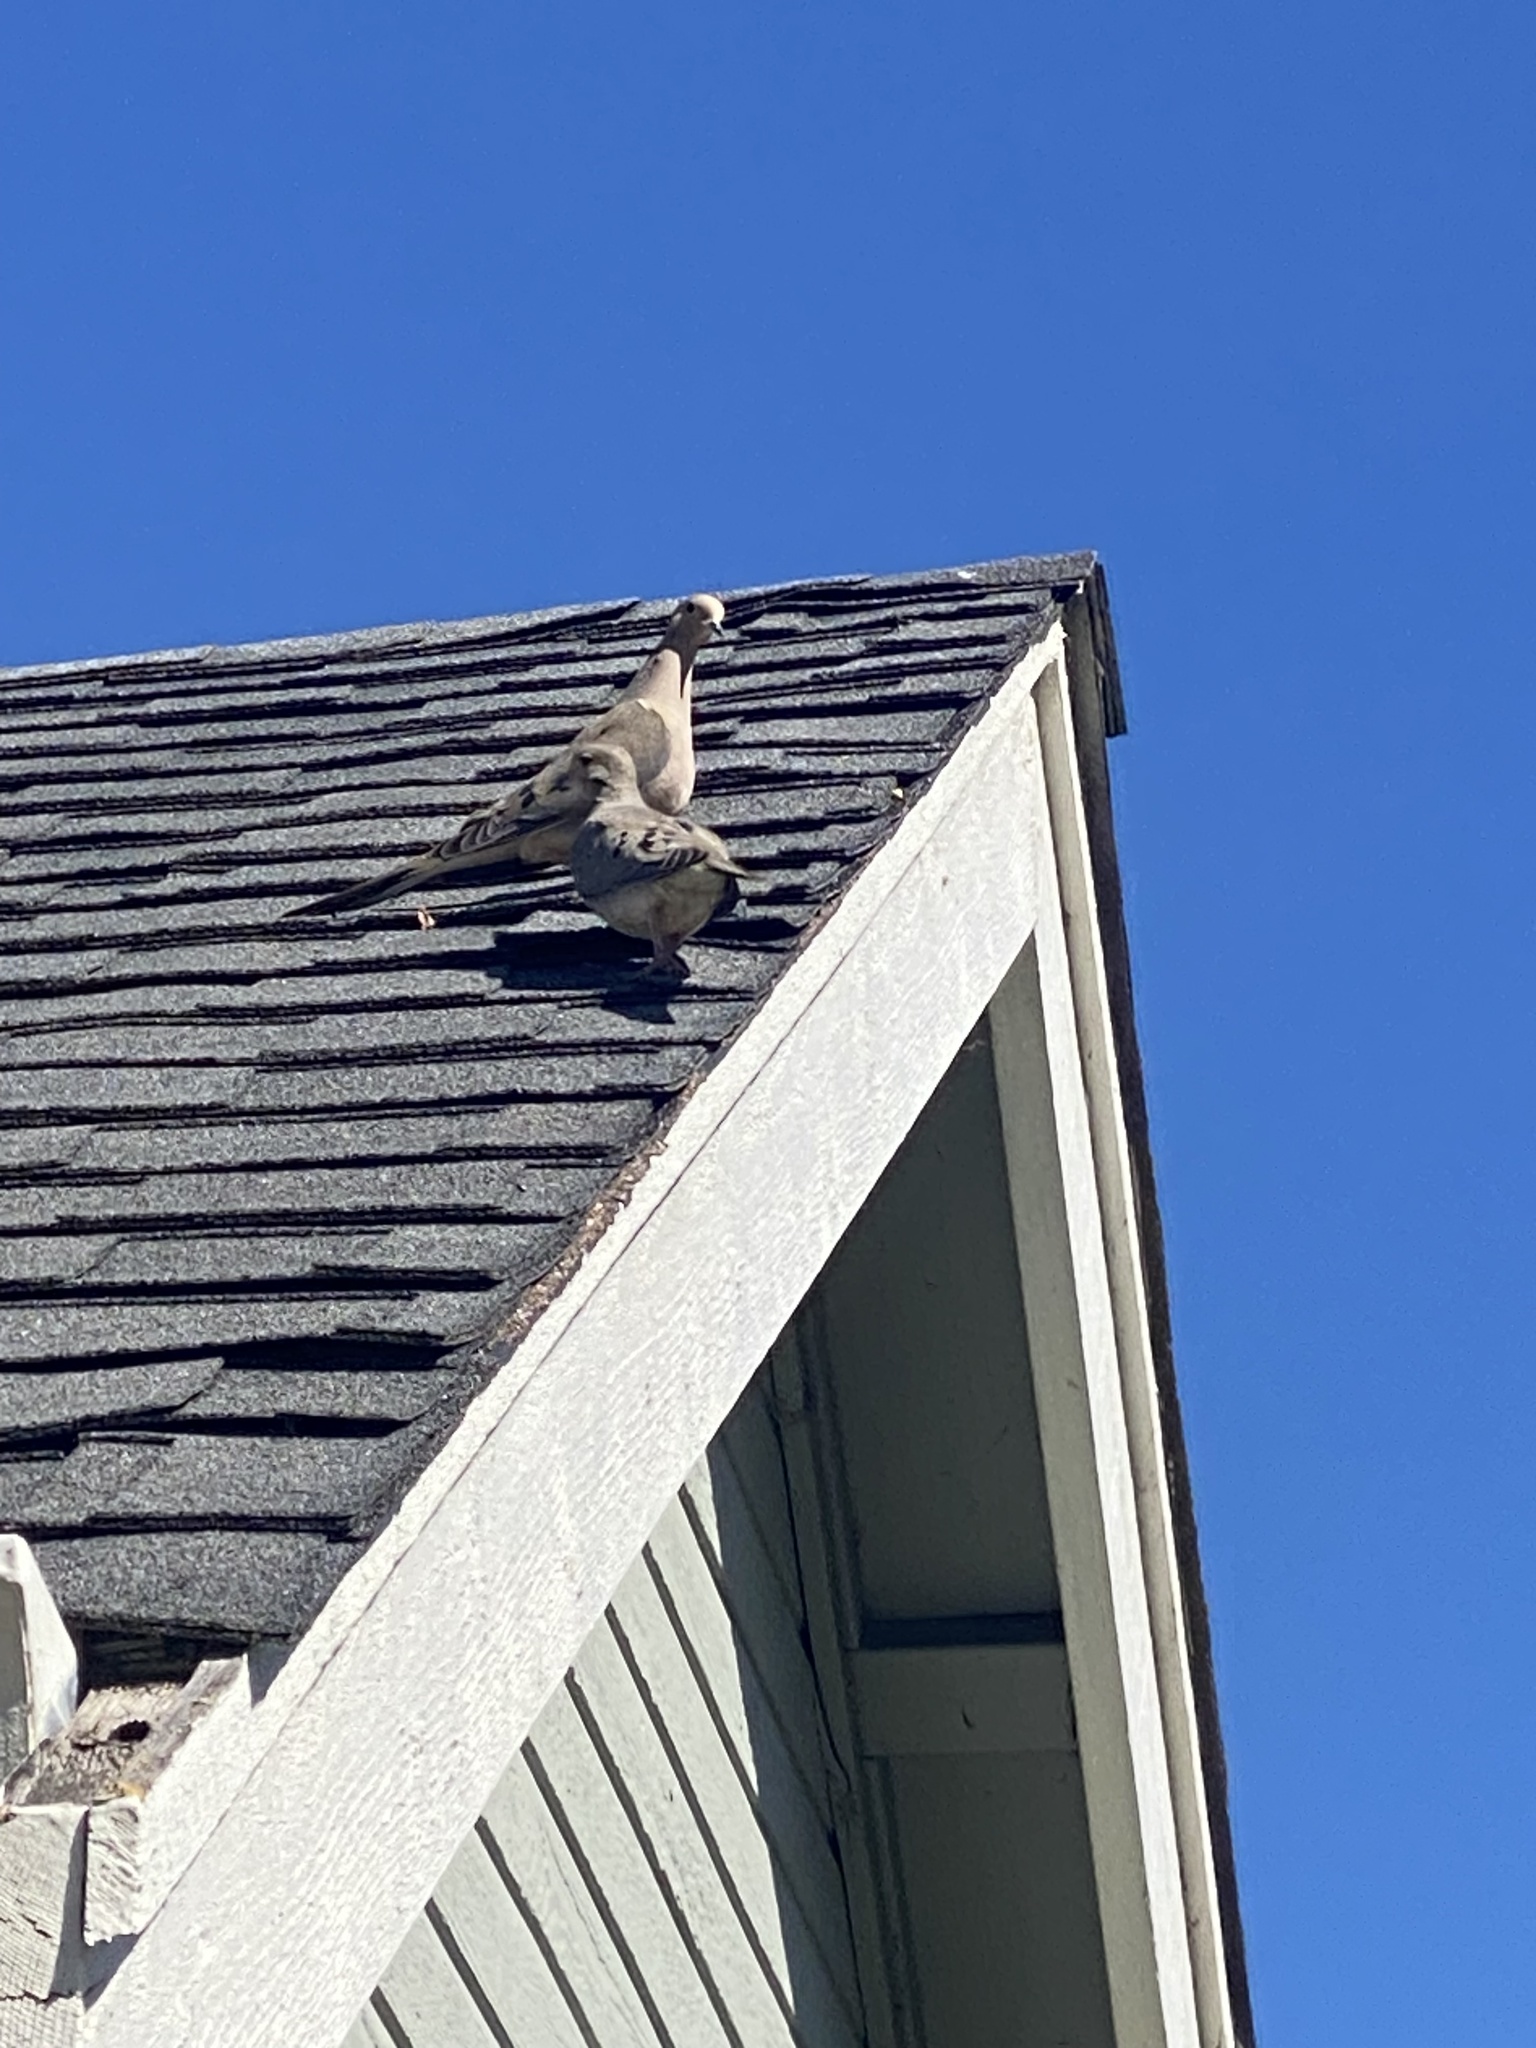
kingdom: Animalia
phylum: Chordata
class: Aves
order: Columbiformes
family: Columbidae
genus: Zenaida
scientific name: Zenaida macroura
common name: Mourning dove
